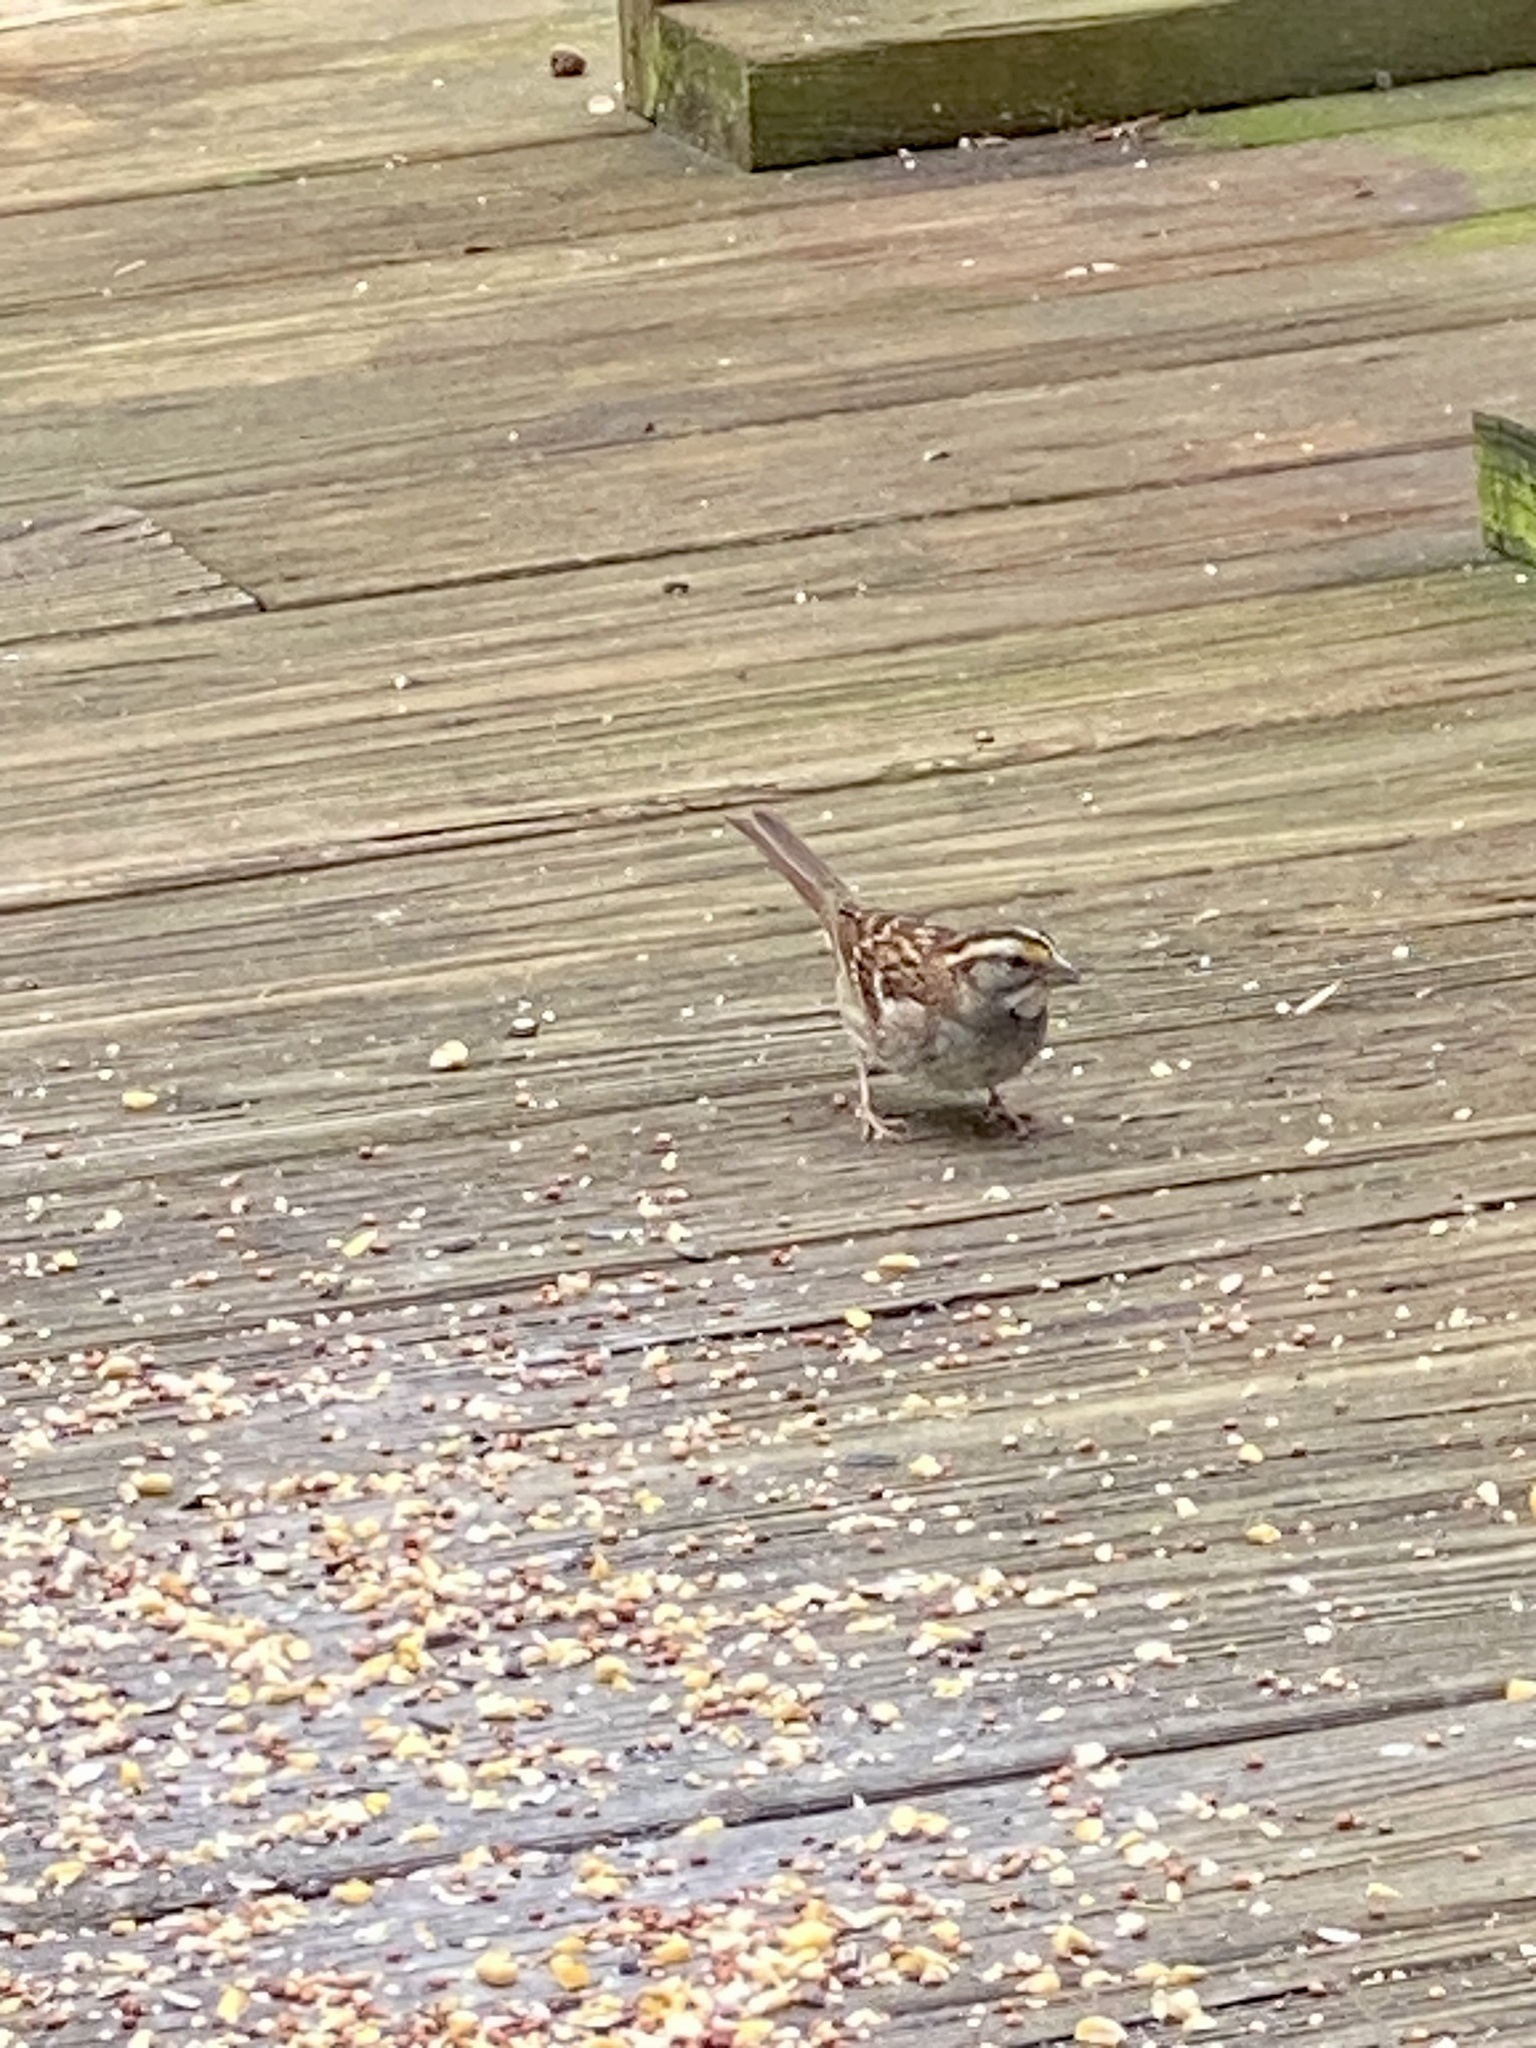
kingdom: Animalia
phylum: Chordata
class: Aves
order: Passeriformes
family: Passerellidae
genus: Zonotrichia
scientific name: Zonotrichia albicollis
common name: White-throated sparrow
